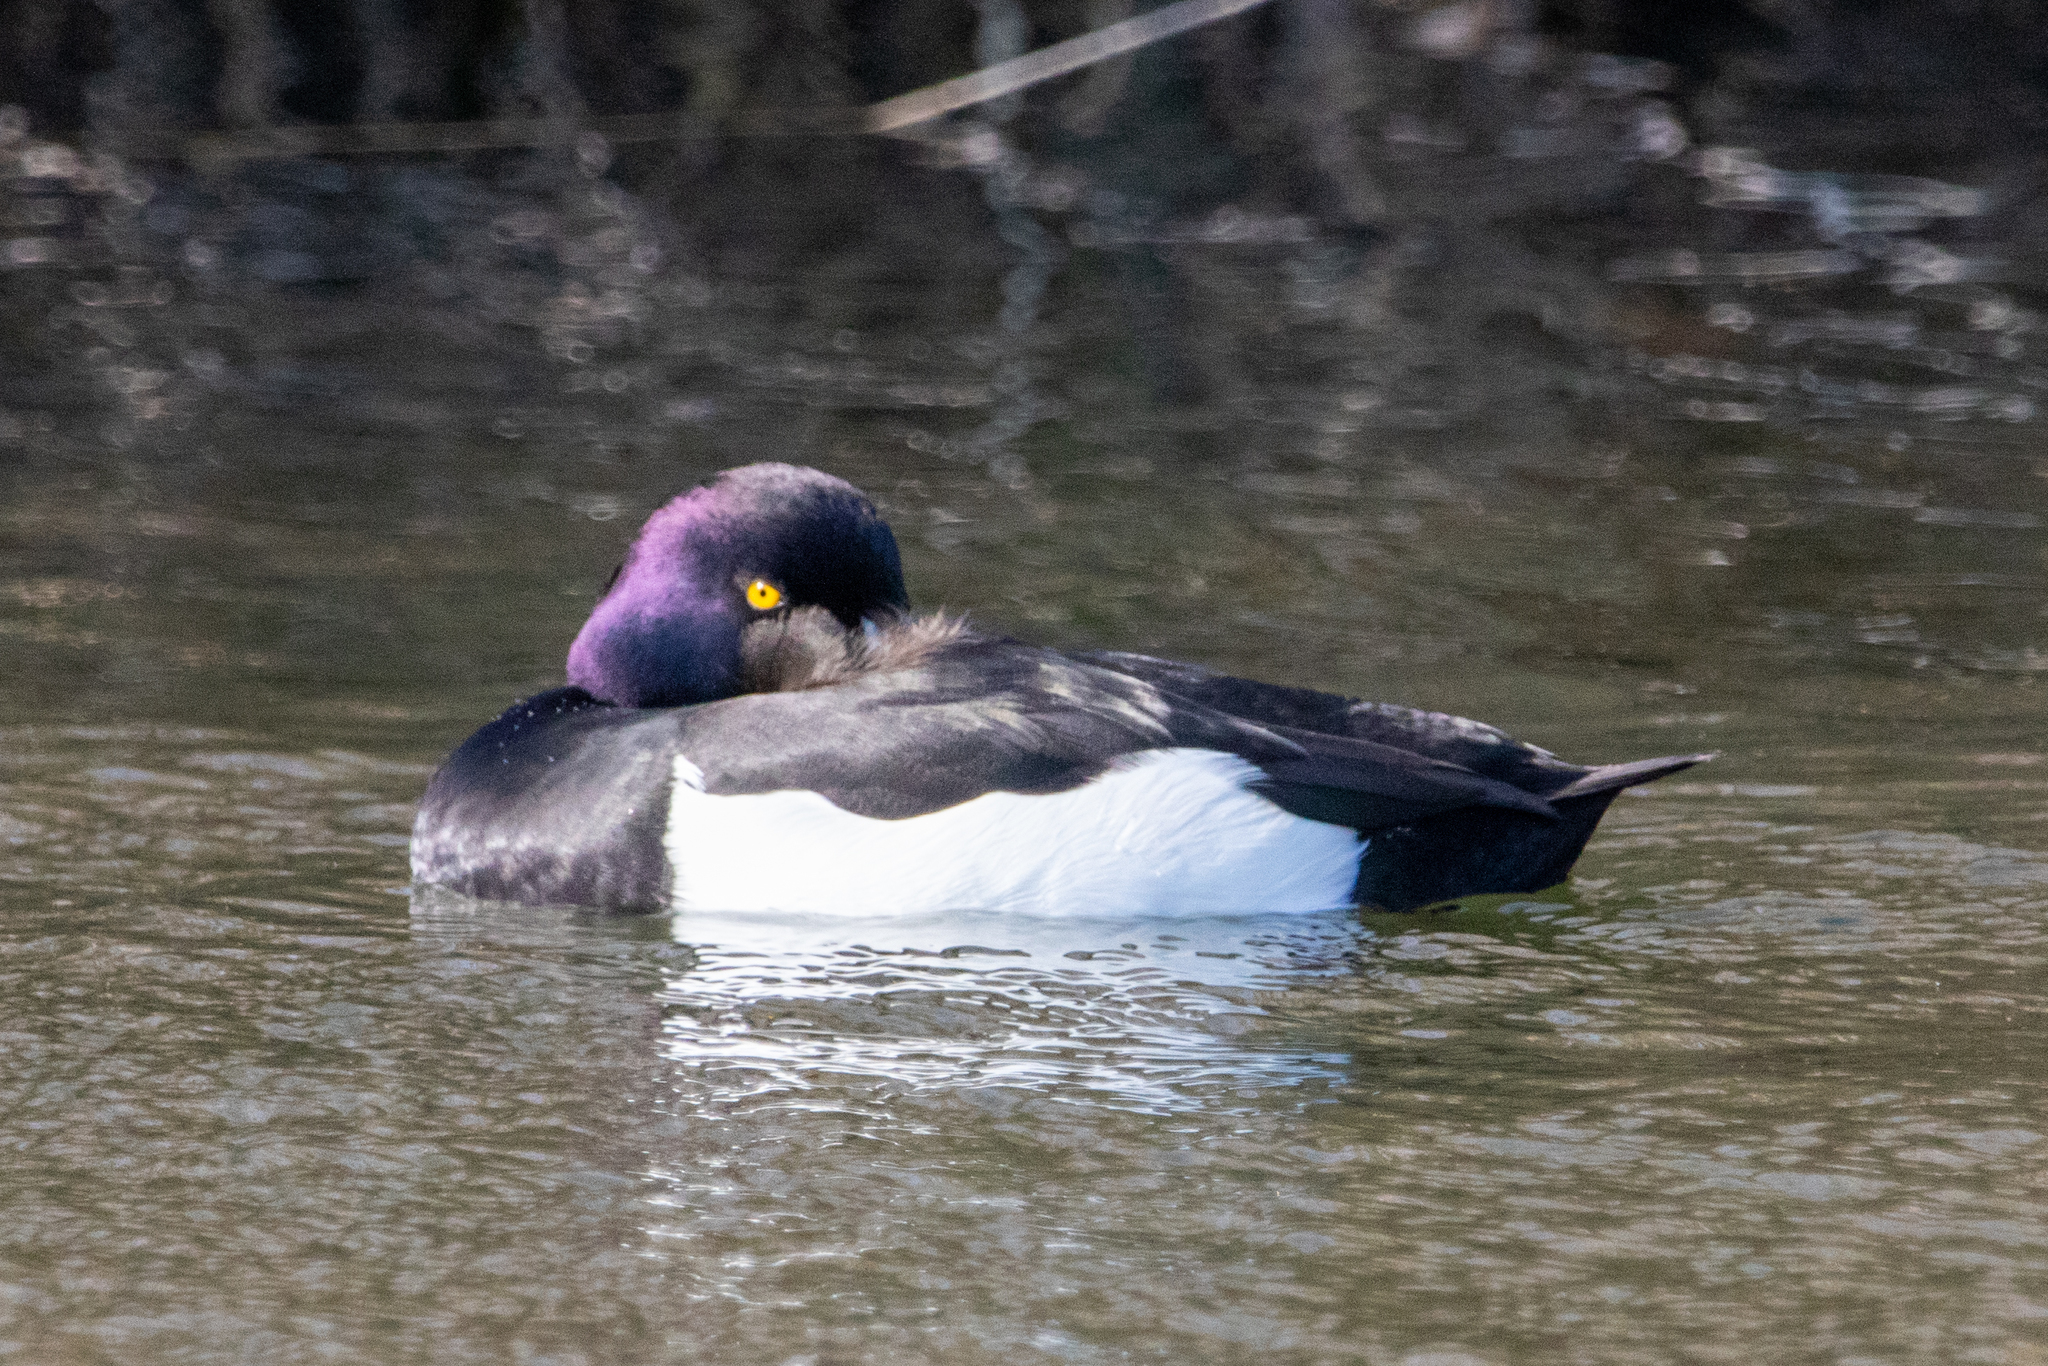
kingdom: Animalia
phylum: Chordata
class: Aves
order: Anseriformes
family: Anatidae
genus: Aythya
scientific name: Aythya fuligula
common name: Tufted duck
